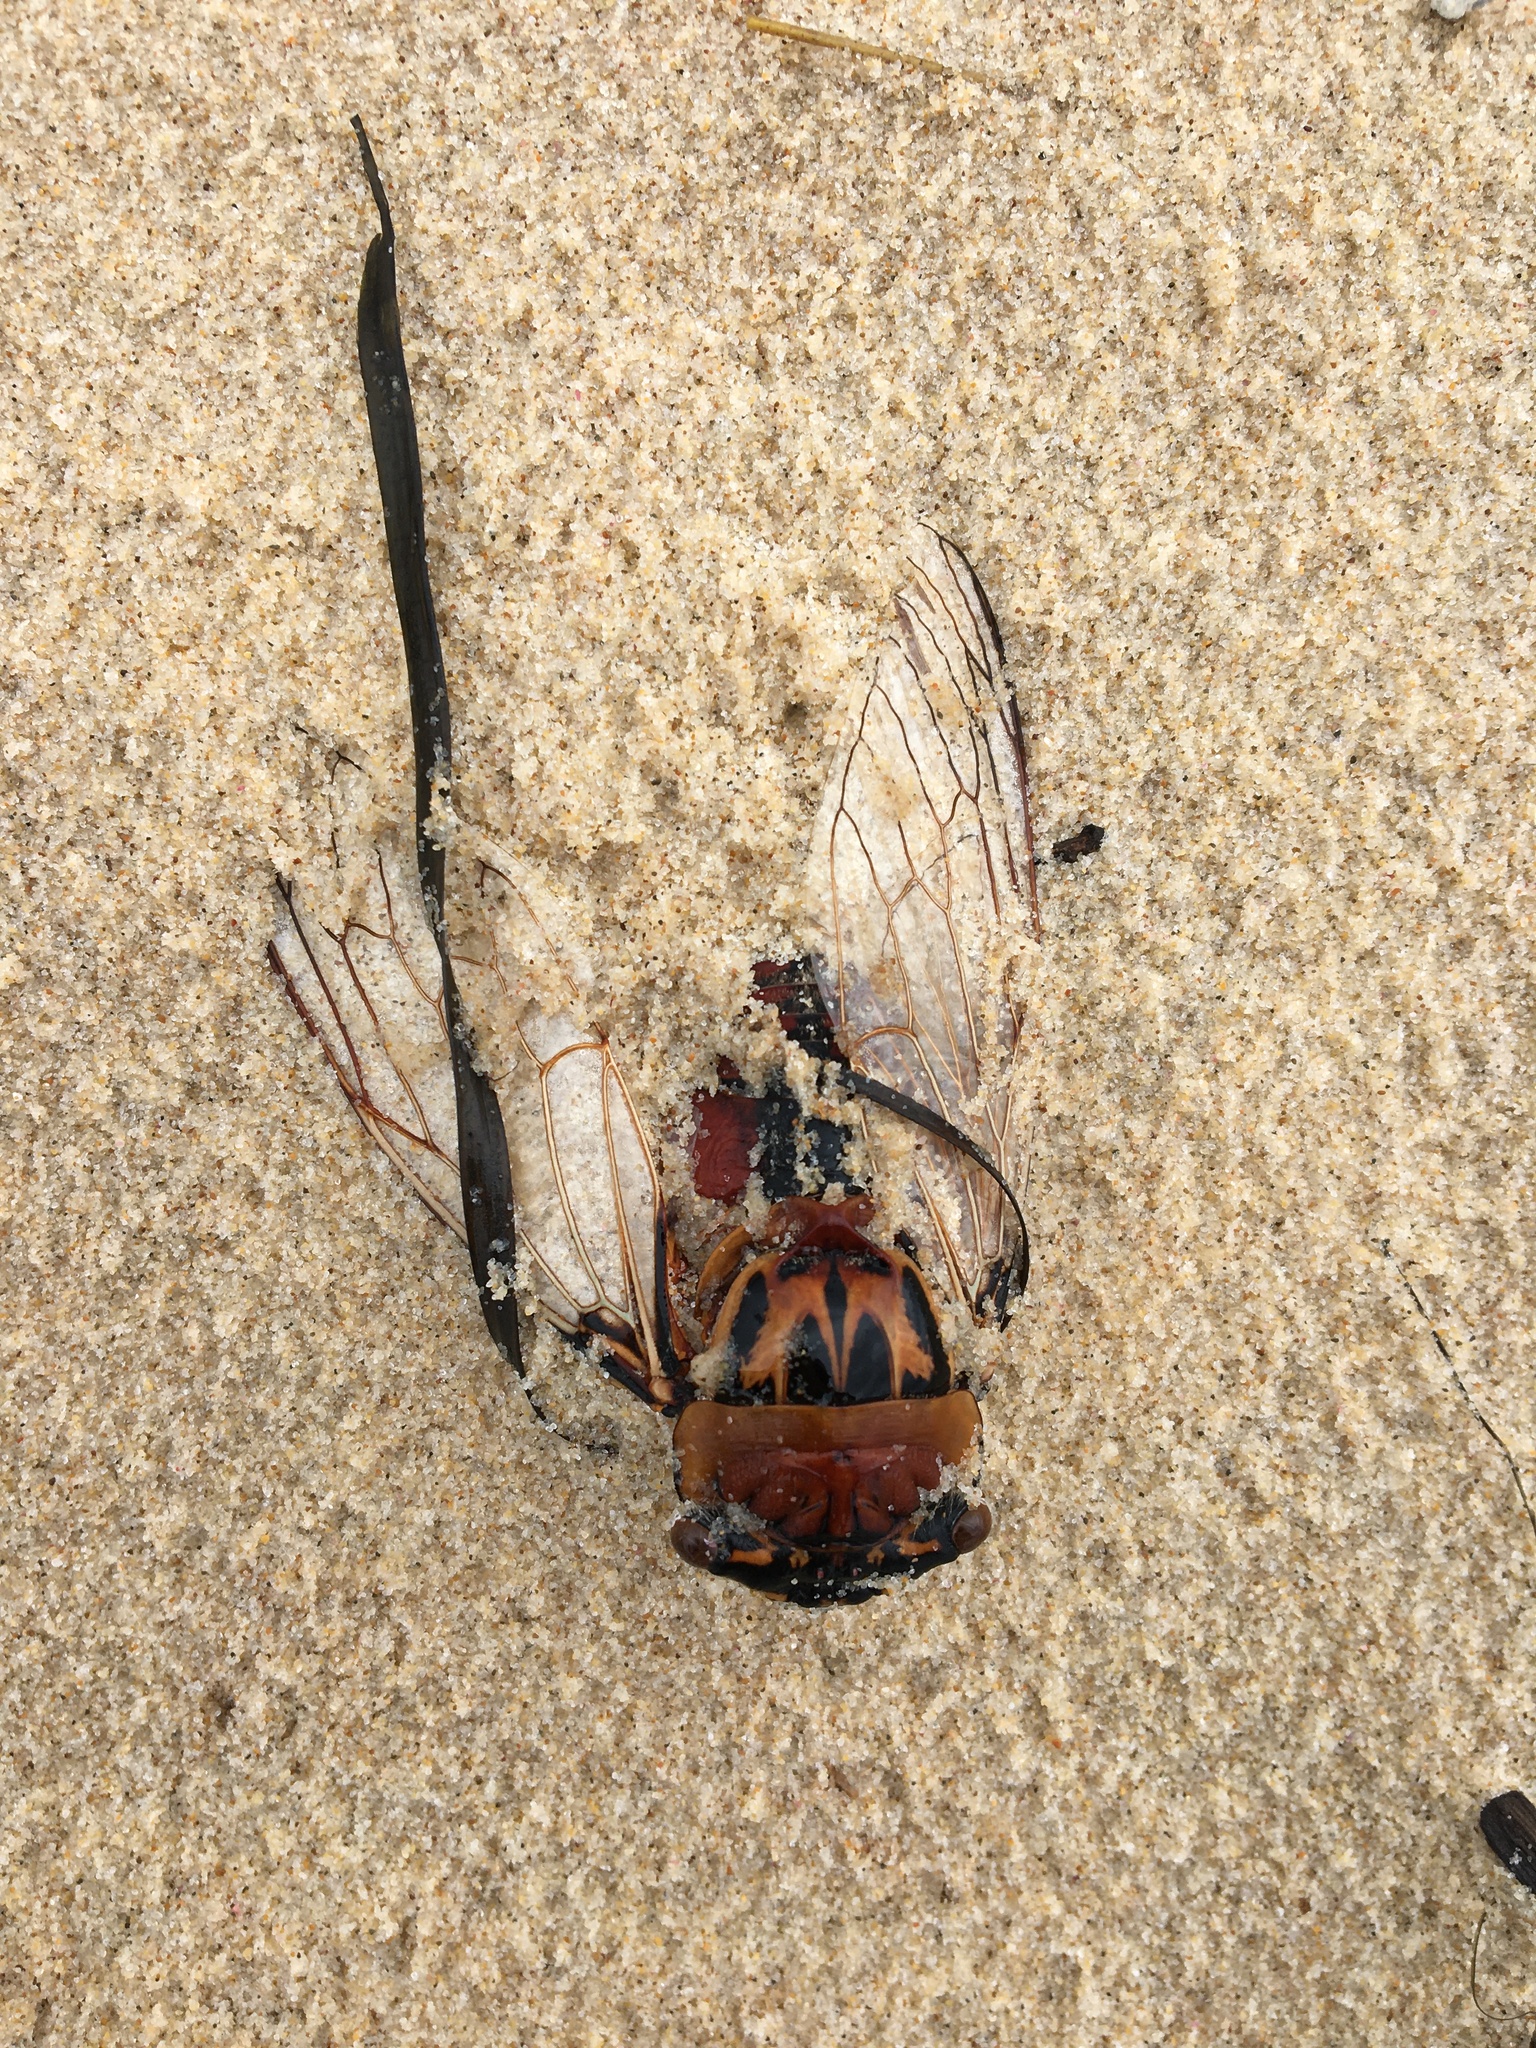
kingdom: Animalia
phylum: Arthropoda
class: Insecta
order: Hemiptera
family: Cicadidae
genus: Thopha
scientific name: Thopha saccata
